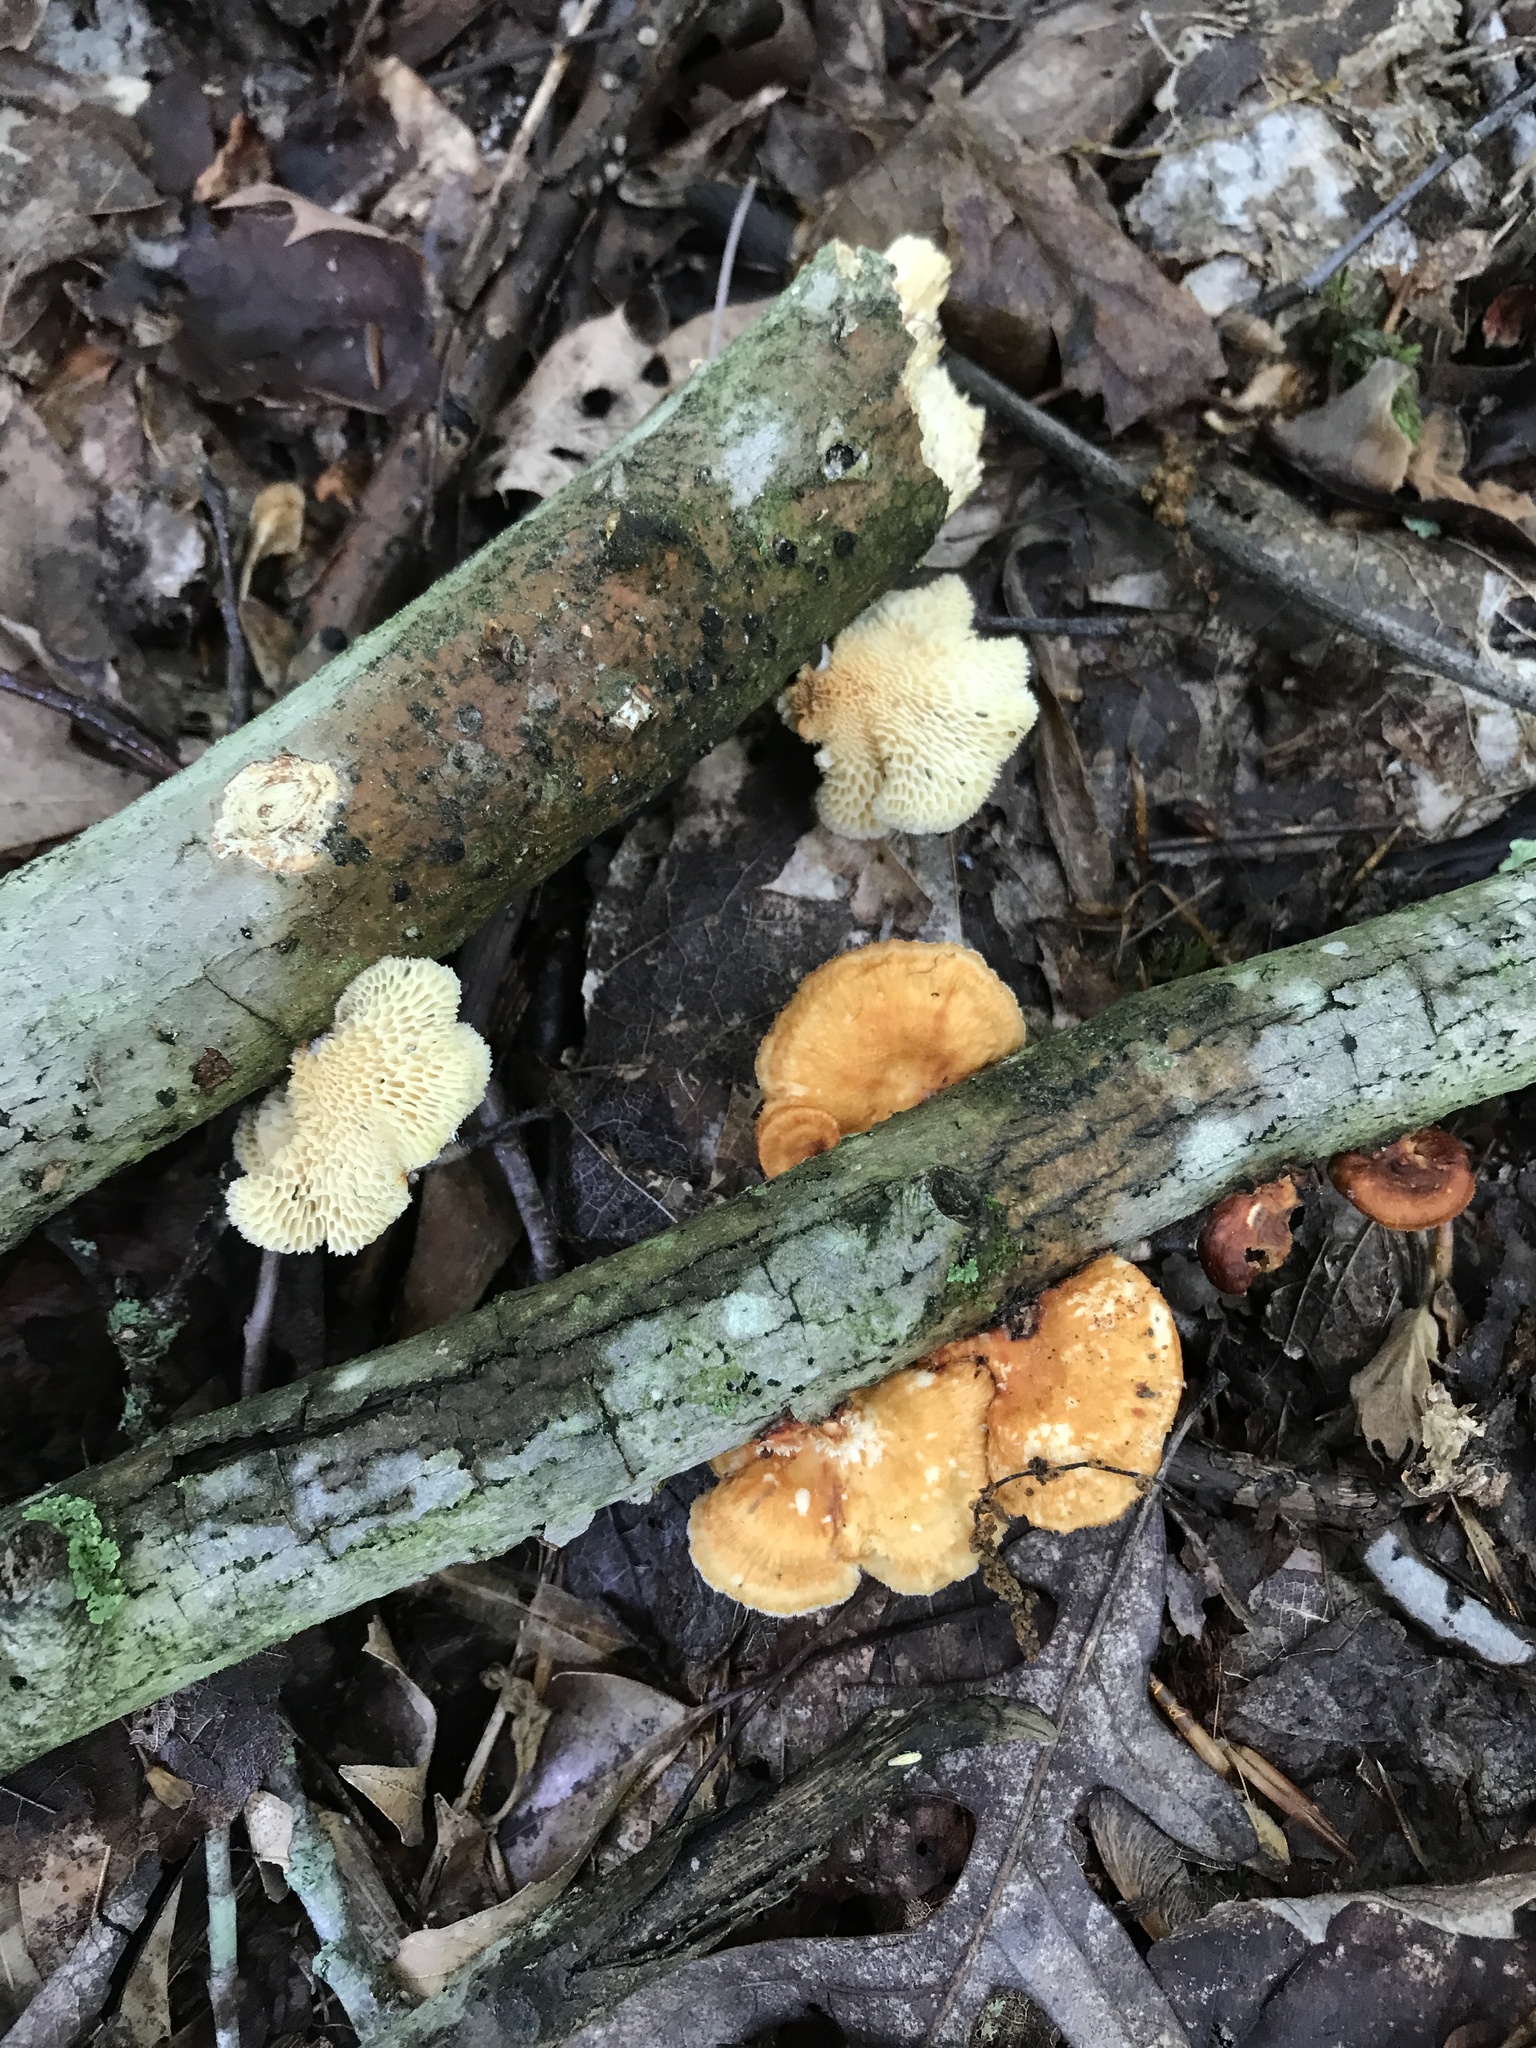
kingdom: Fungi
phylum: Basidiomycota
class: Agaricomycetes
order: Polyporales
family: Polyporaceae
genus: Neofavolus
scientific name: Neofavolus alveolaris
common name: Hexagonal-pored polypore
